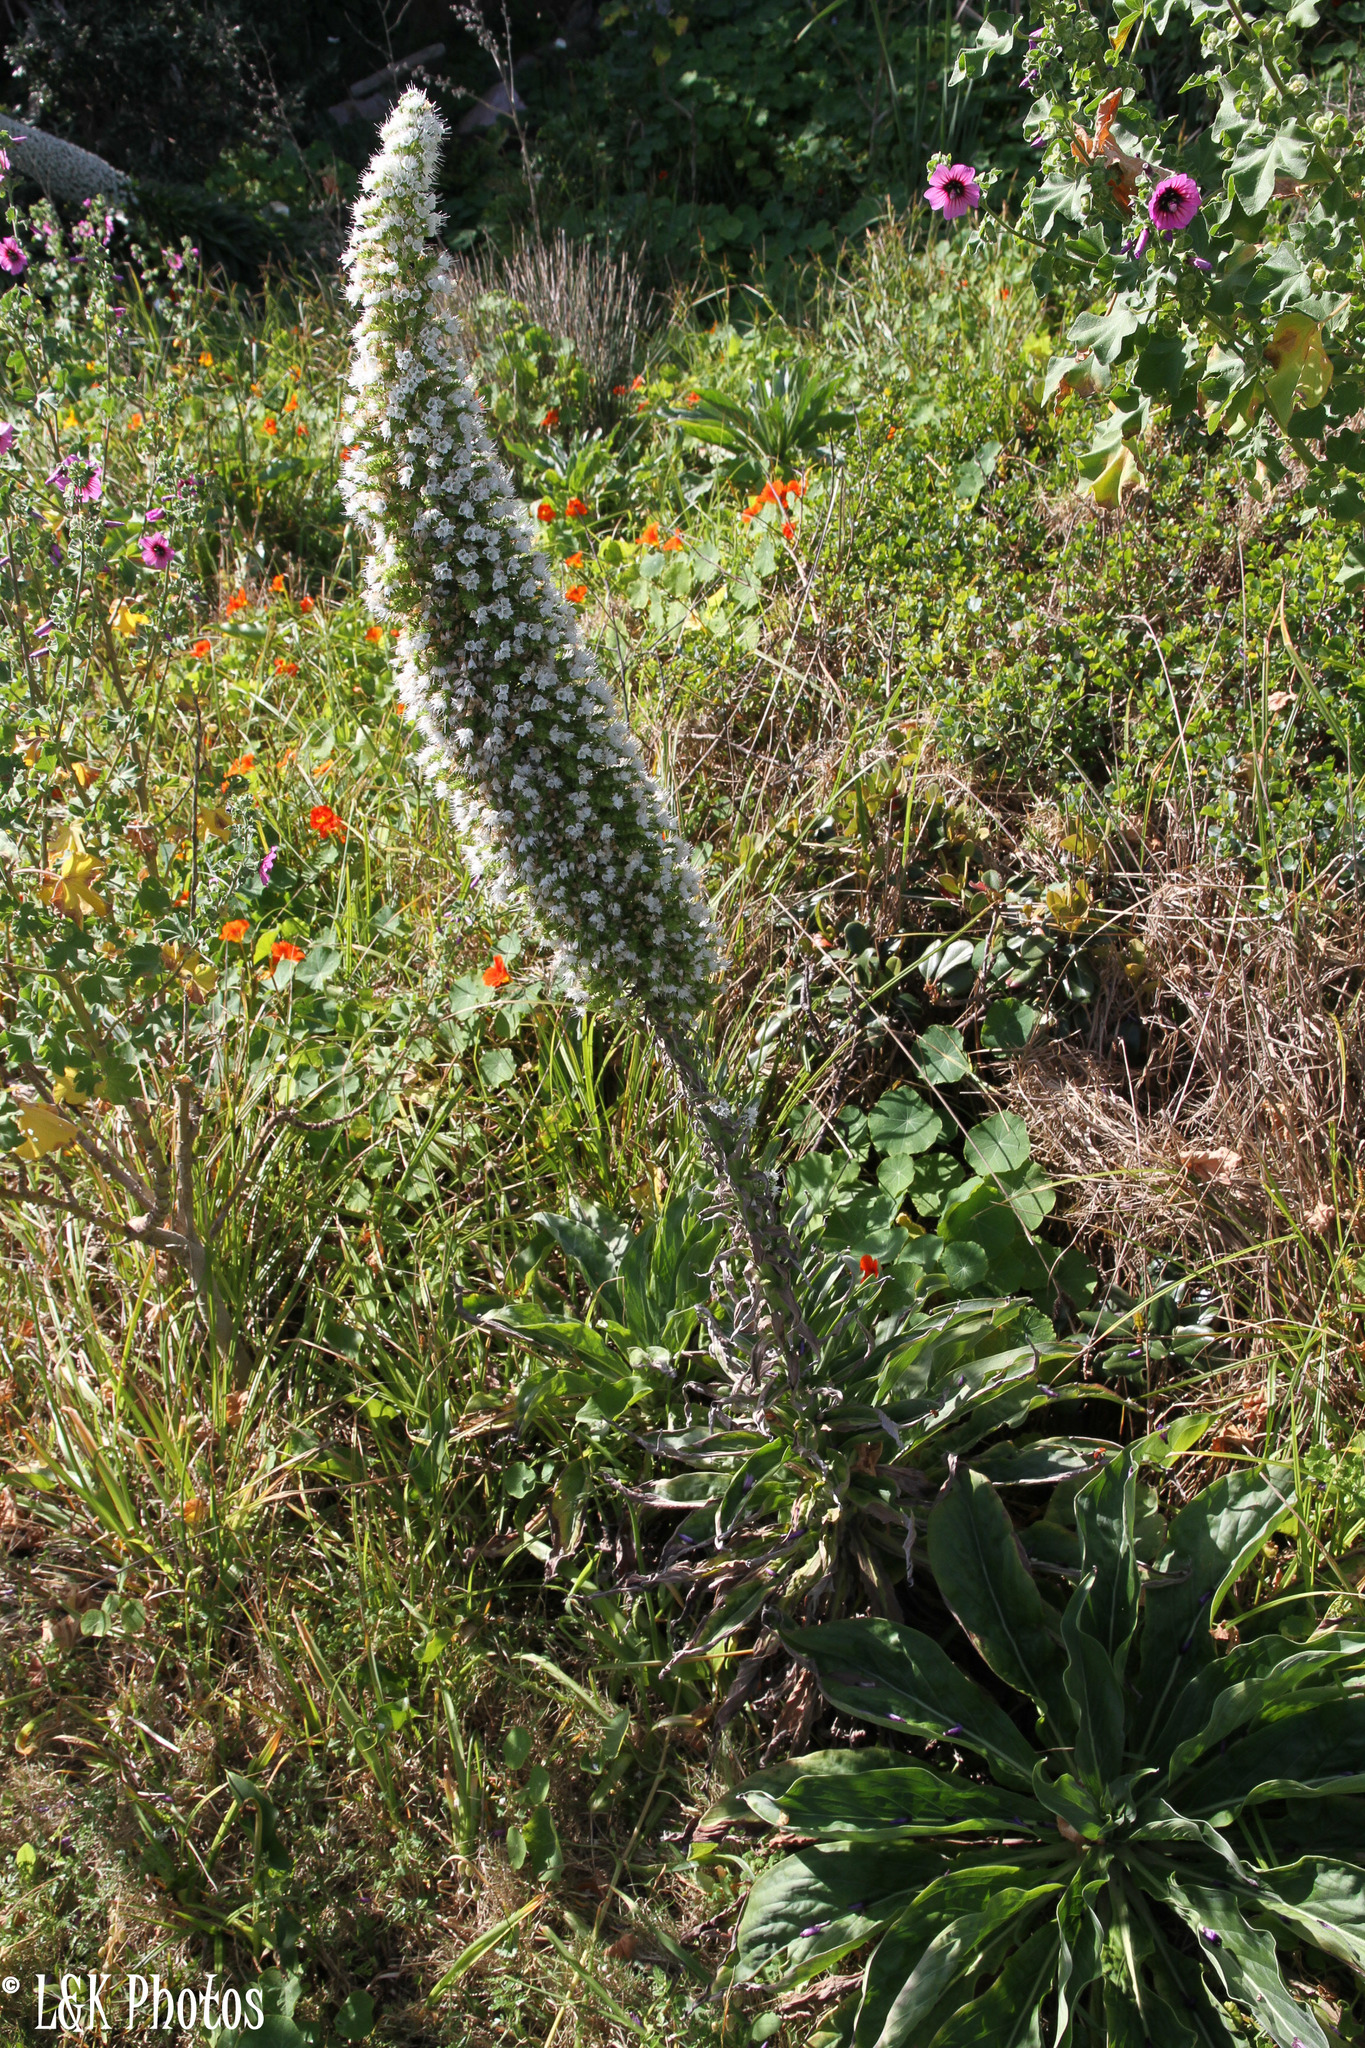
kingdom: Plantae
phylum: Tracheophyta
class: Magnoliopsida
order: Boraginales
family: Boraginaceae
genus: Echium
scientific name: Echium simplex
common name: Pride-of-tenerife
